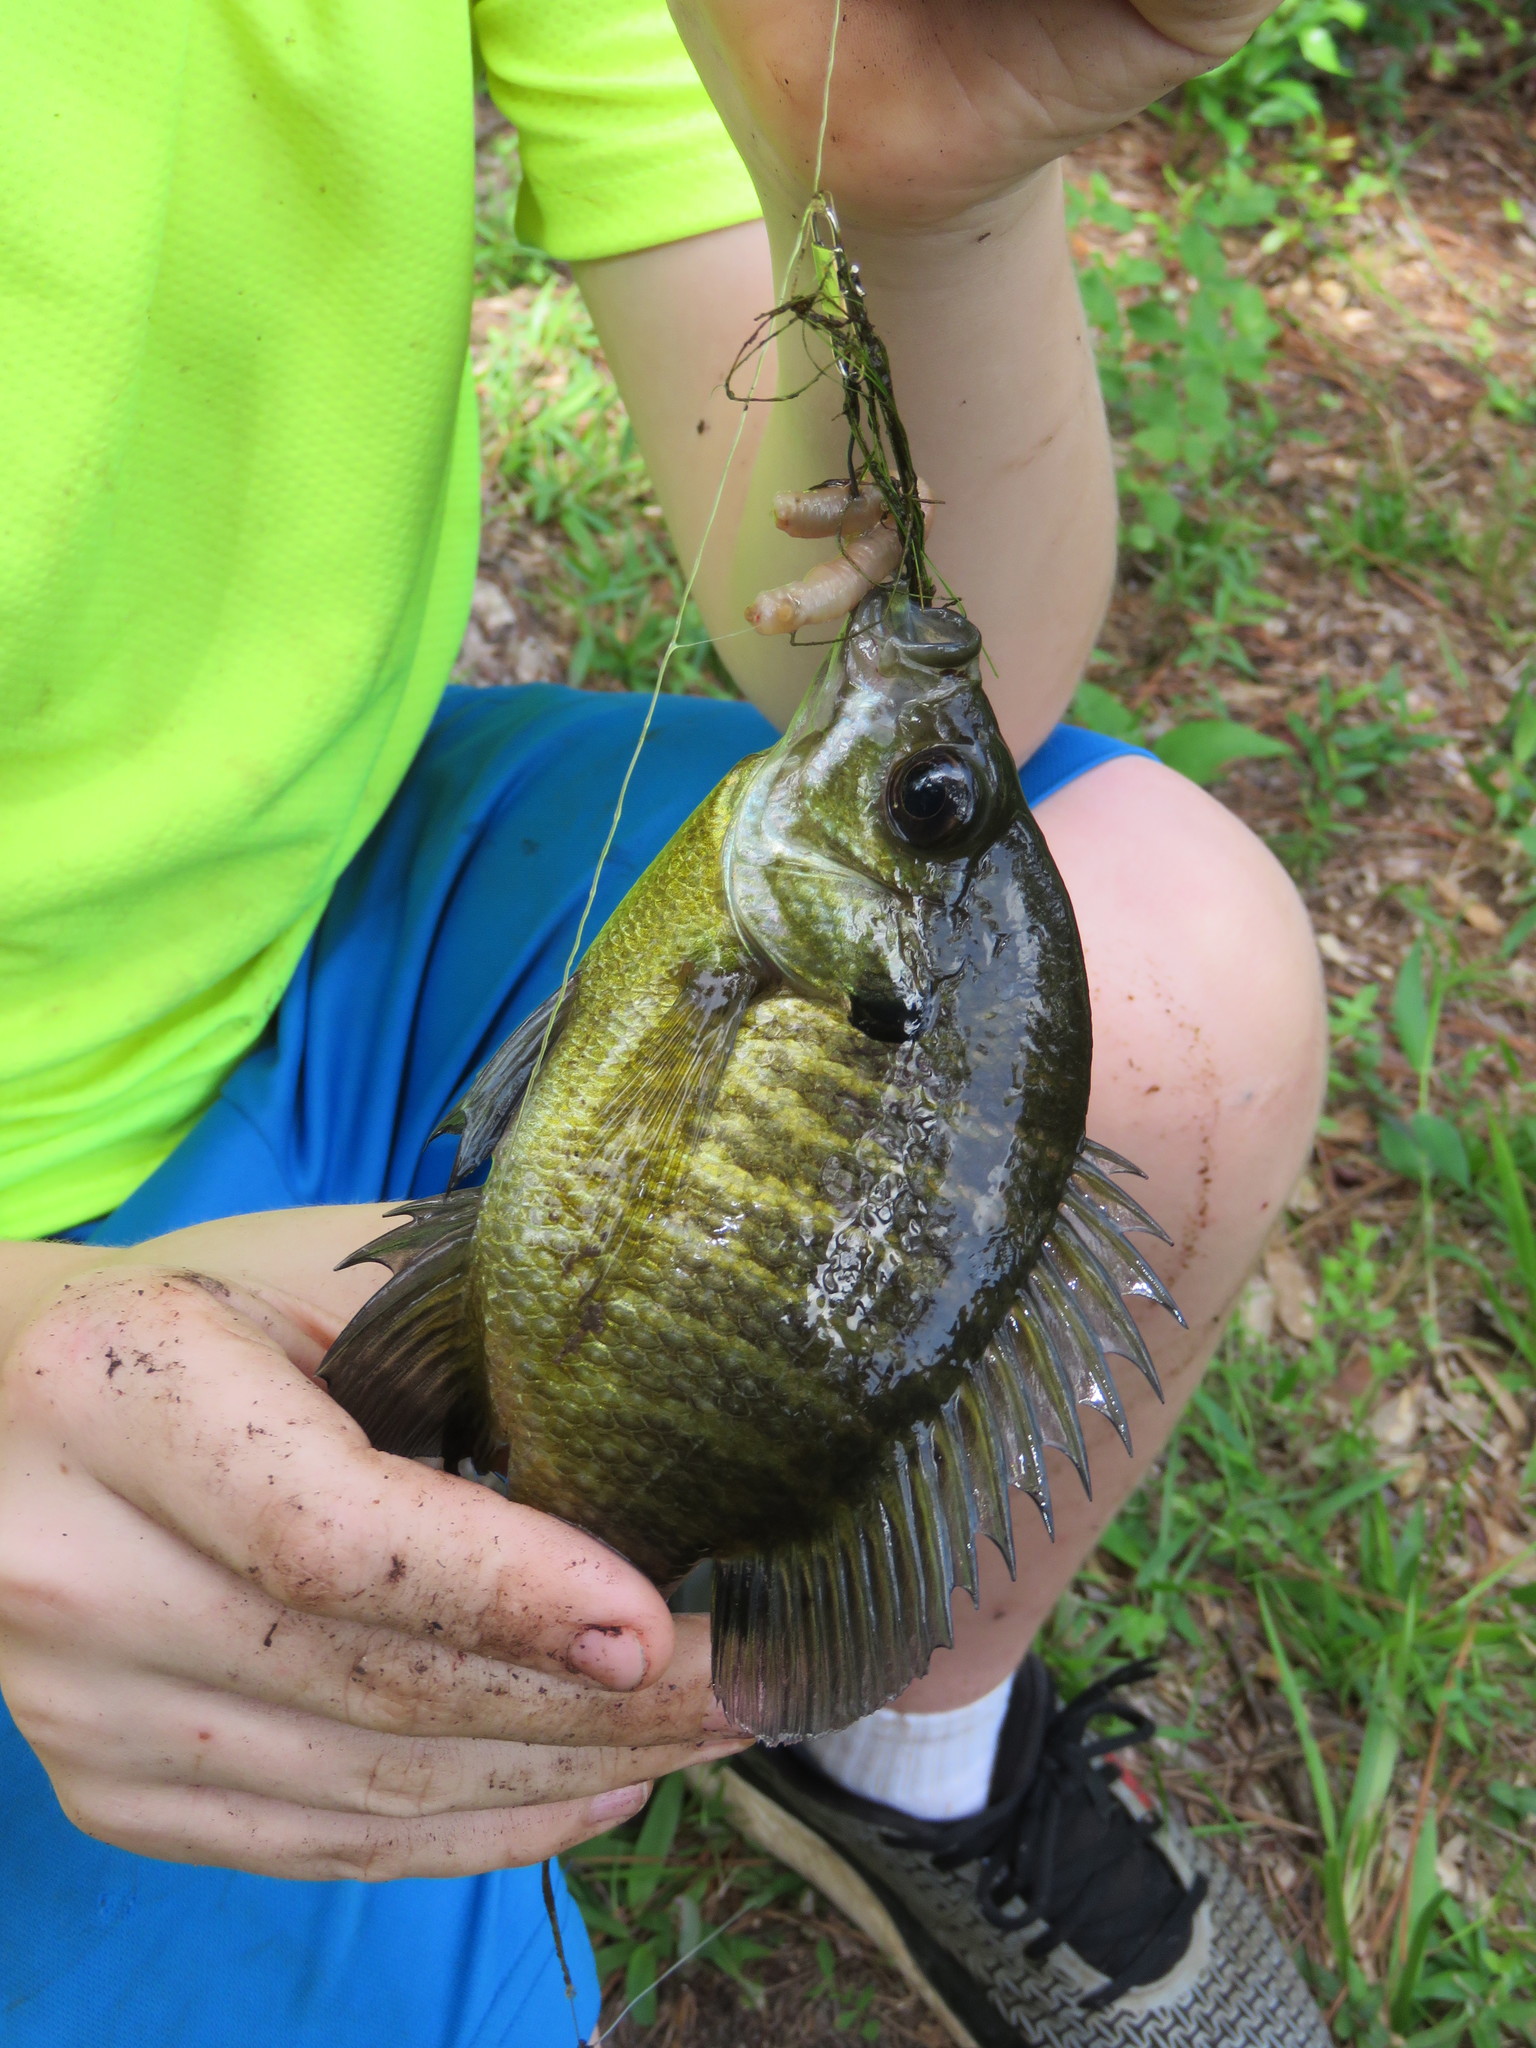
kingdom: Animalia
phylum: Chordata
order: Perciformes
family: Centrarchidae
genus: Lepomis
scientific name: Lepomis macrochirus
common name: Bluegill
